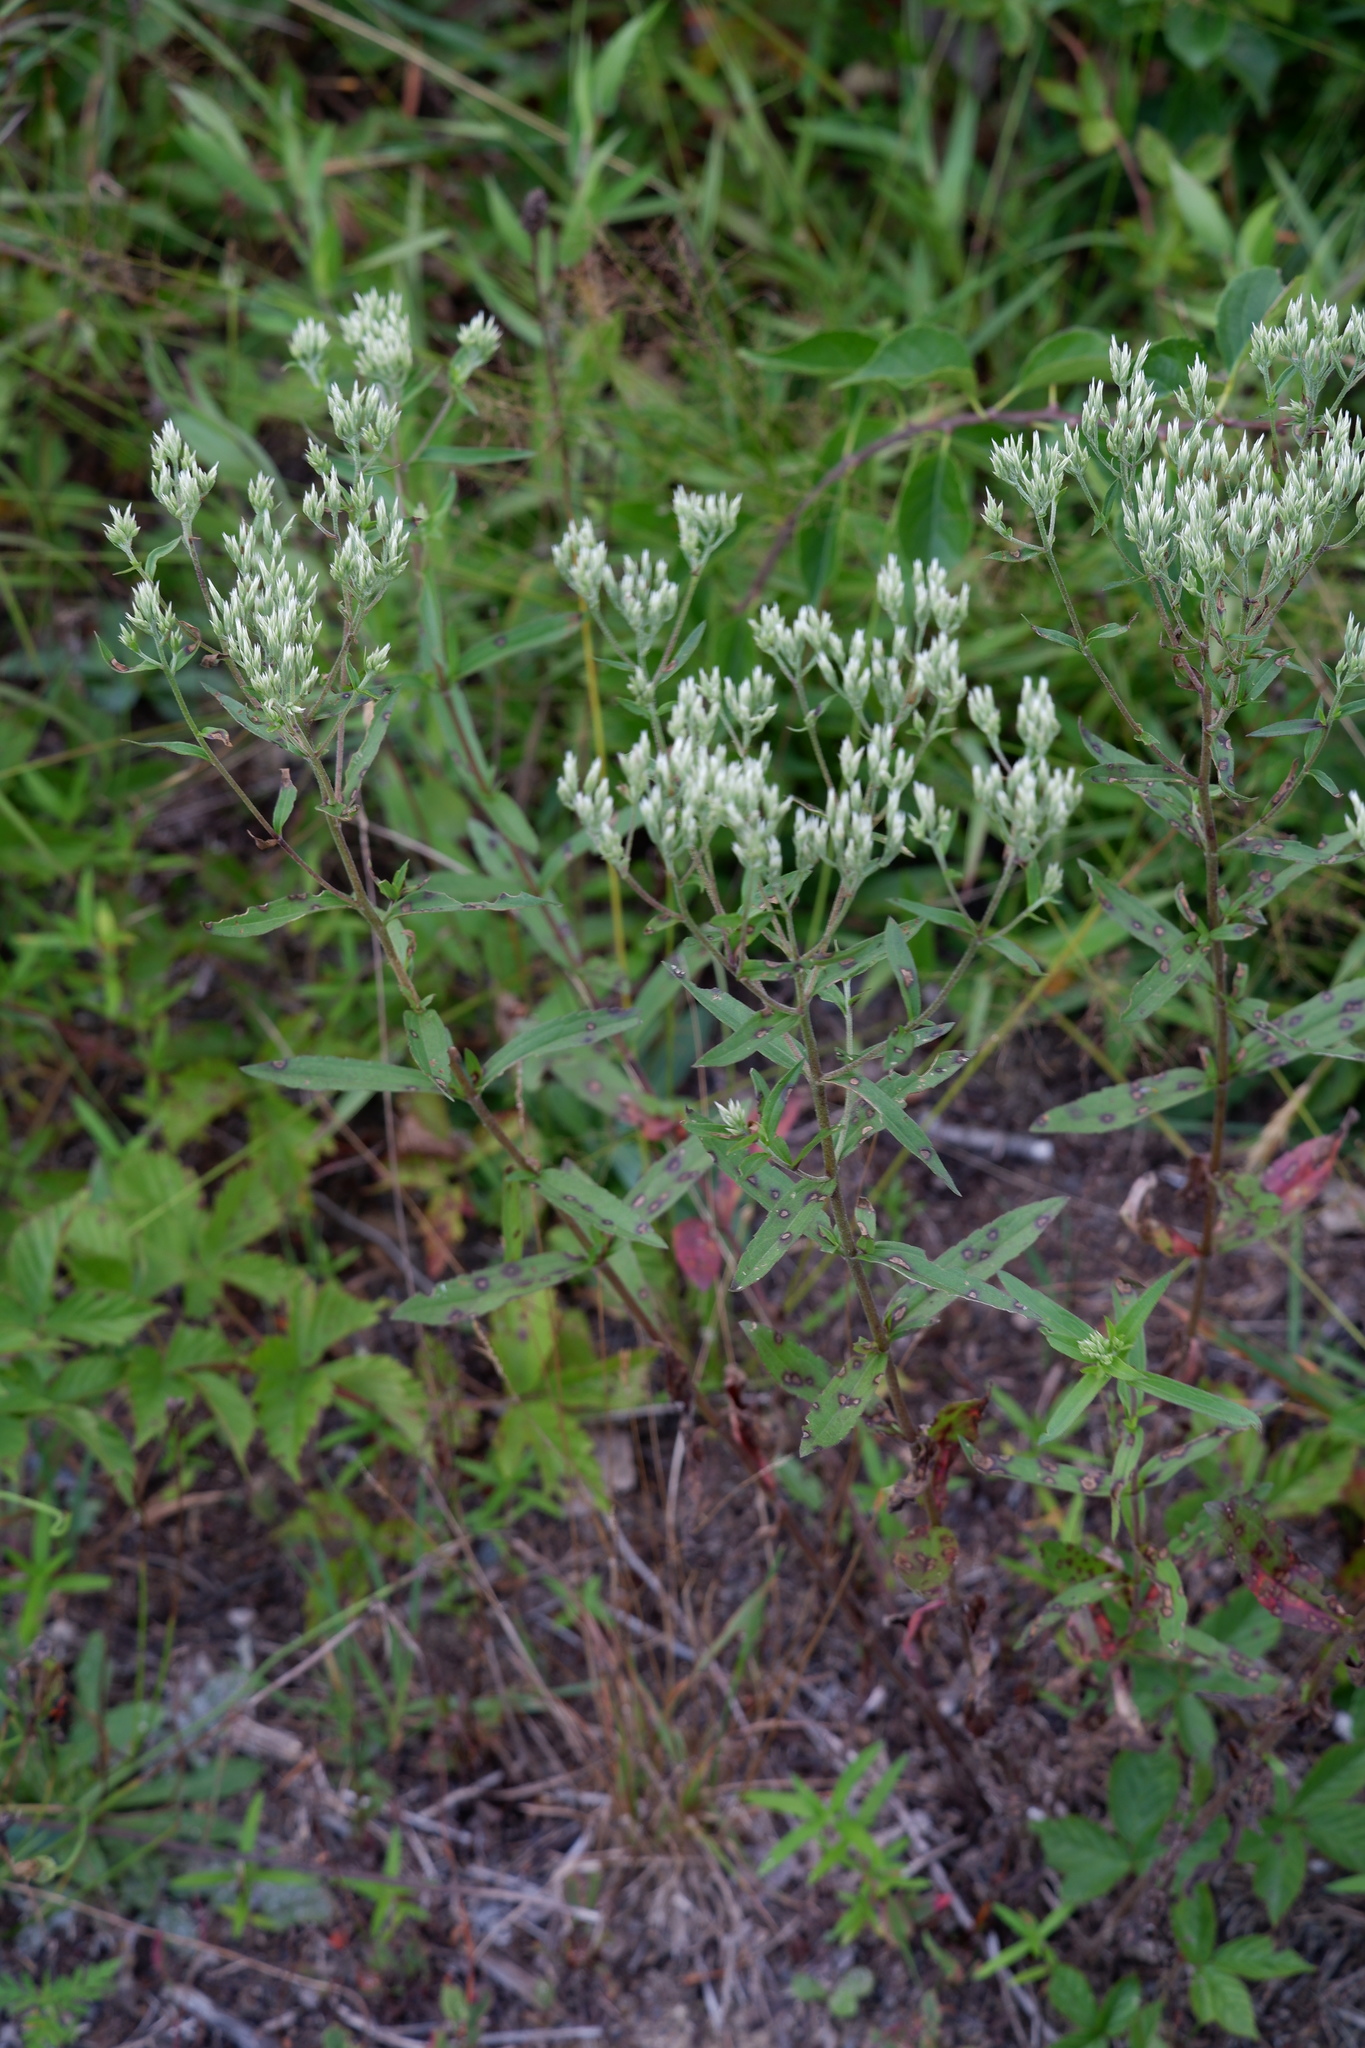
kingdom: Plantae
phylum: Tracheophyta
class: Magnoliopsida
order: Asterales
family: Asteraceae
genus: Eupatorium
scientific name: Eupatorium album
